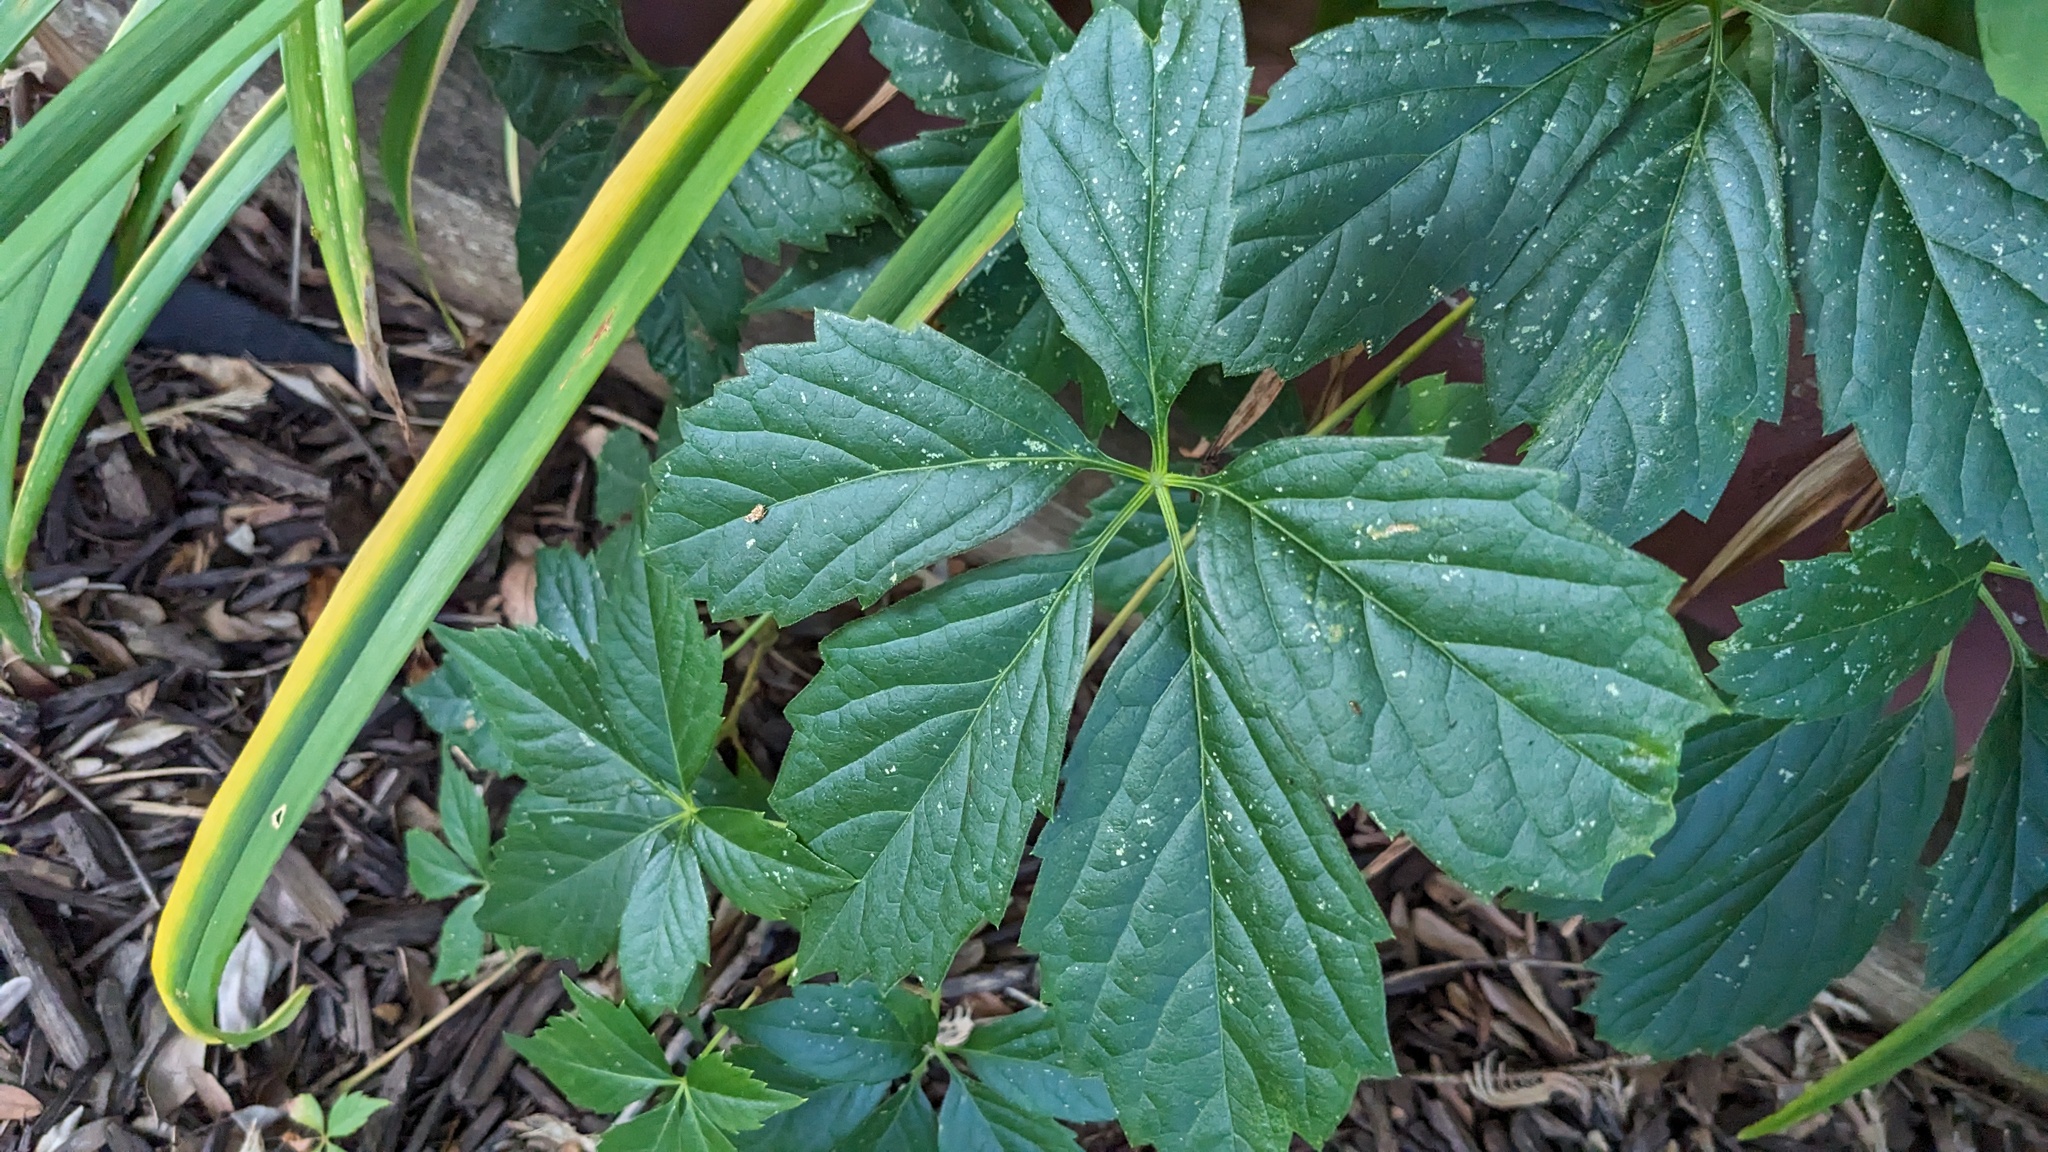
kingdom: Plantae
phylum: Tracheophyta
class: Magnoliopsida
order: Vitales
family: Vitaceae
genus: Parthenocissus
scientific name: Parthenocissus inserta
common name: False virginia-creeper
